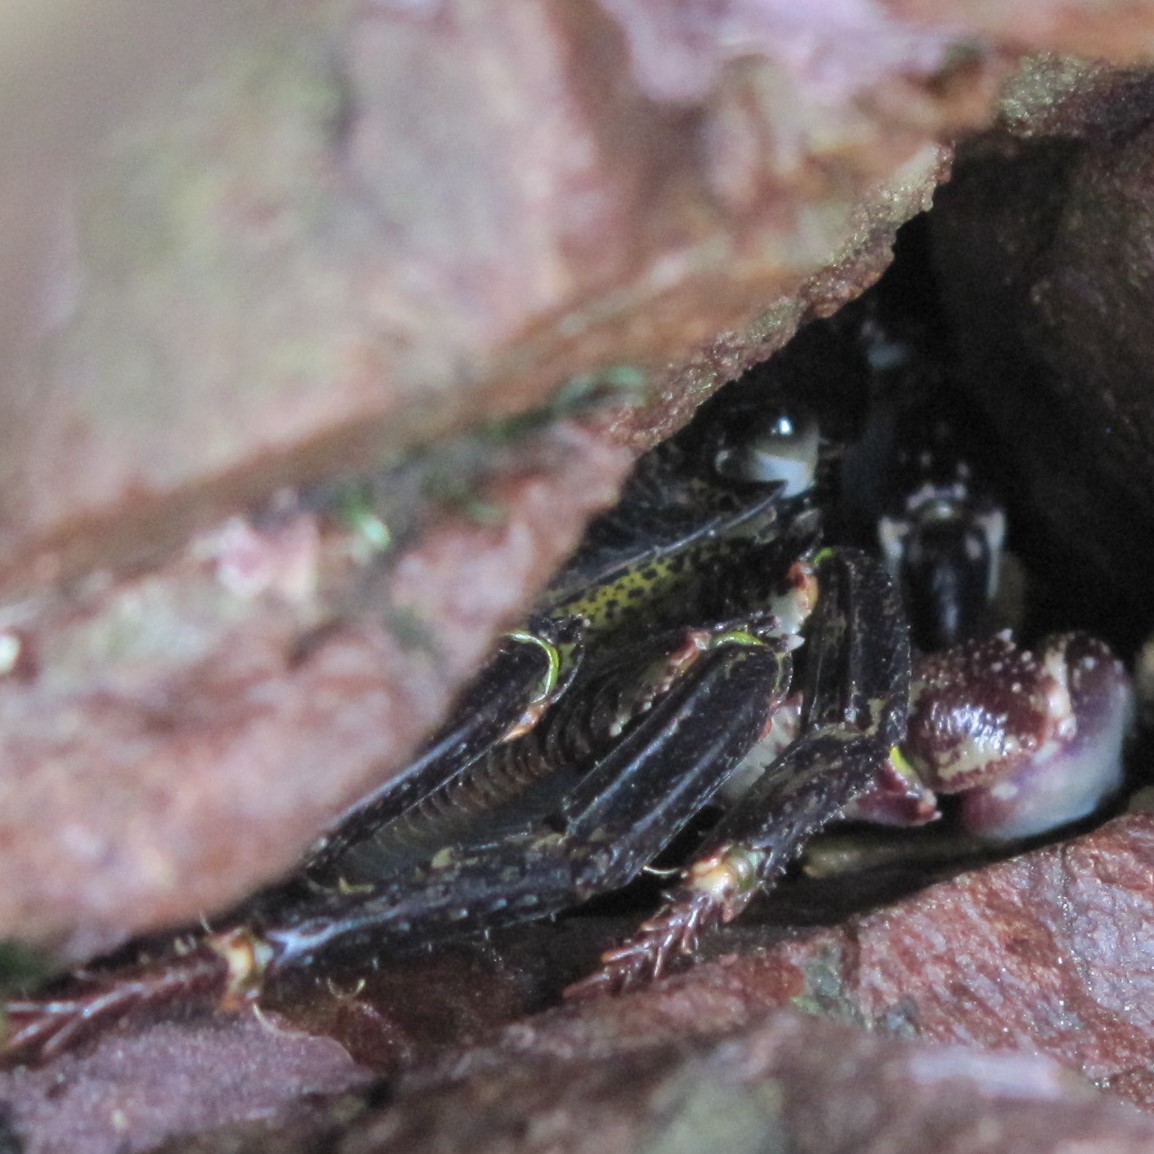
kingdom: Animalia
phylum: Arthropoda
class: Malacostraca
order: Decapoda
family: Grapsidae
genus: Leptograpsus
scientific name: Leptograpsus variegatus
